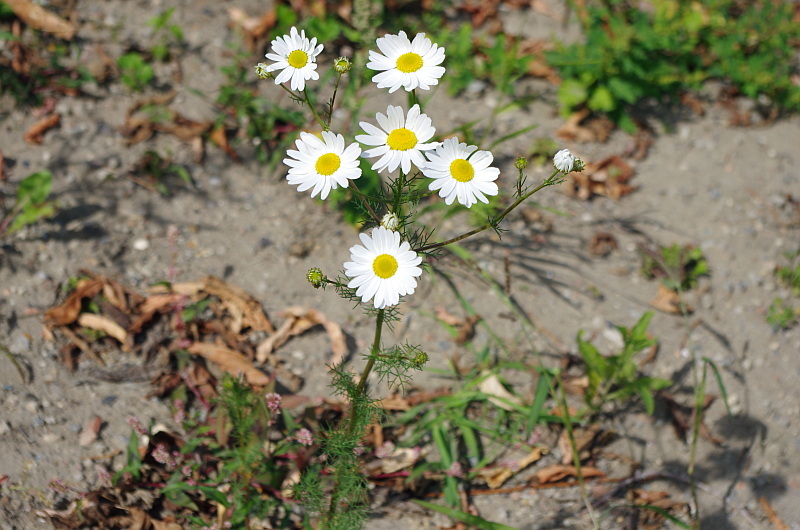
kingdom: Plantae
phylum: Tracheophyta
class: Magnoliopsida
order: Asterales
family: Asteraceae
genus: Tripleurospermum
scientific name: Tripleurospermum inodorum
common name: Scentless mayweed
